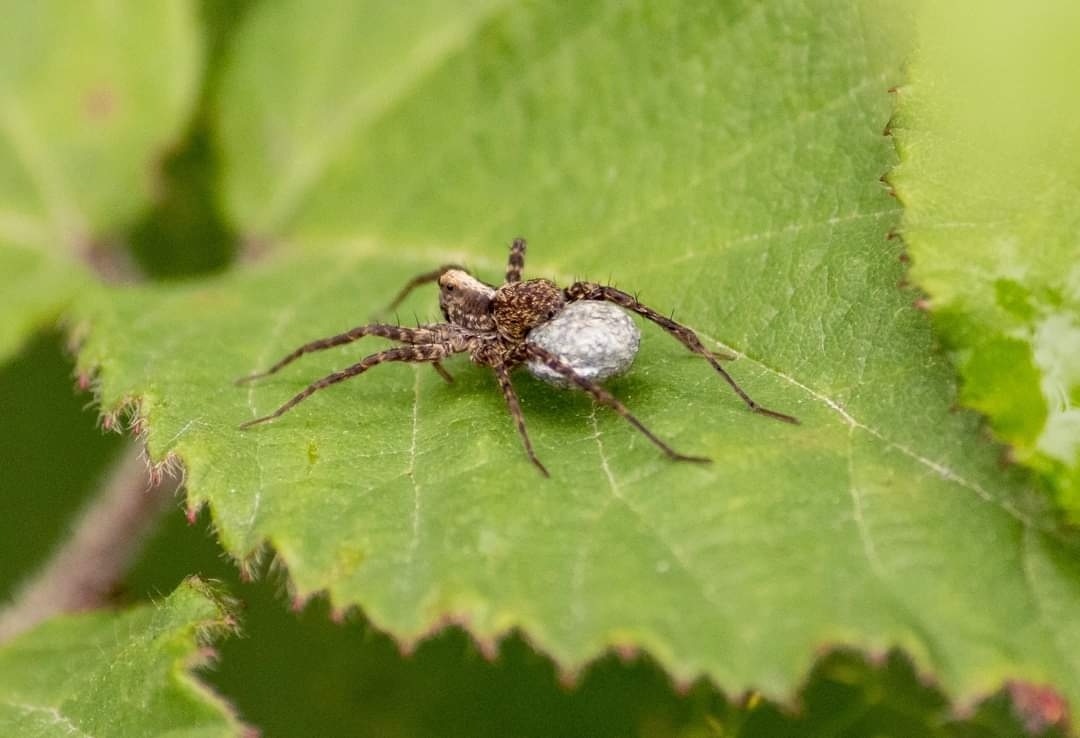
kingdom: Animalia
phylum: Arthropoda
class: Arachnida
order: Araneae
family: Lycosidae
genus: Pardosa
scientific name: Pardosa saltans
